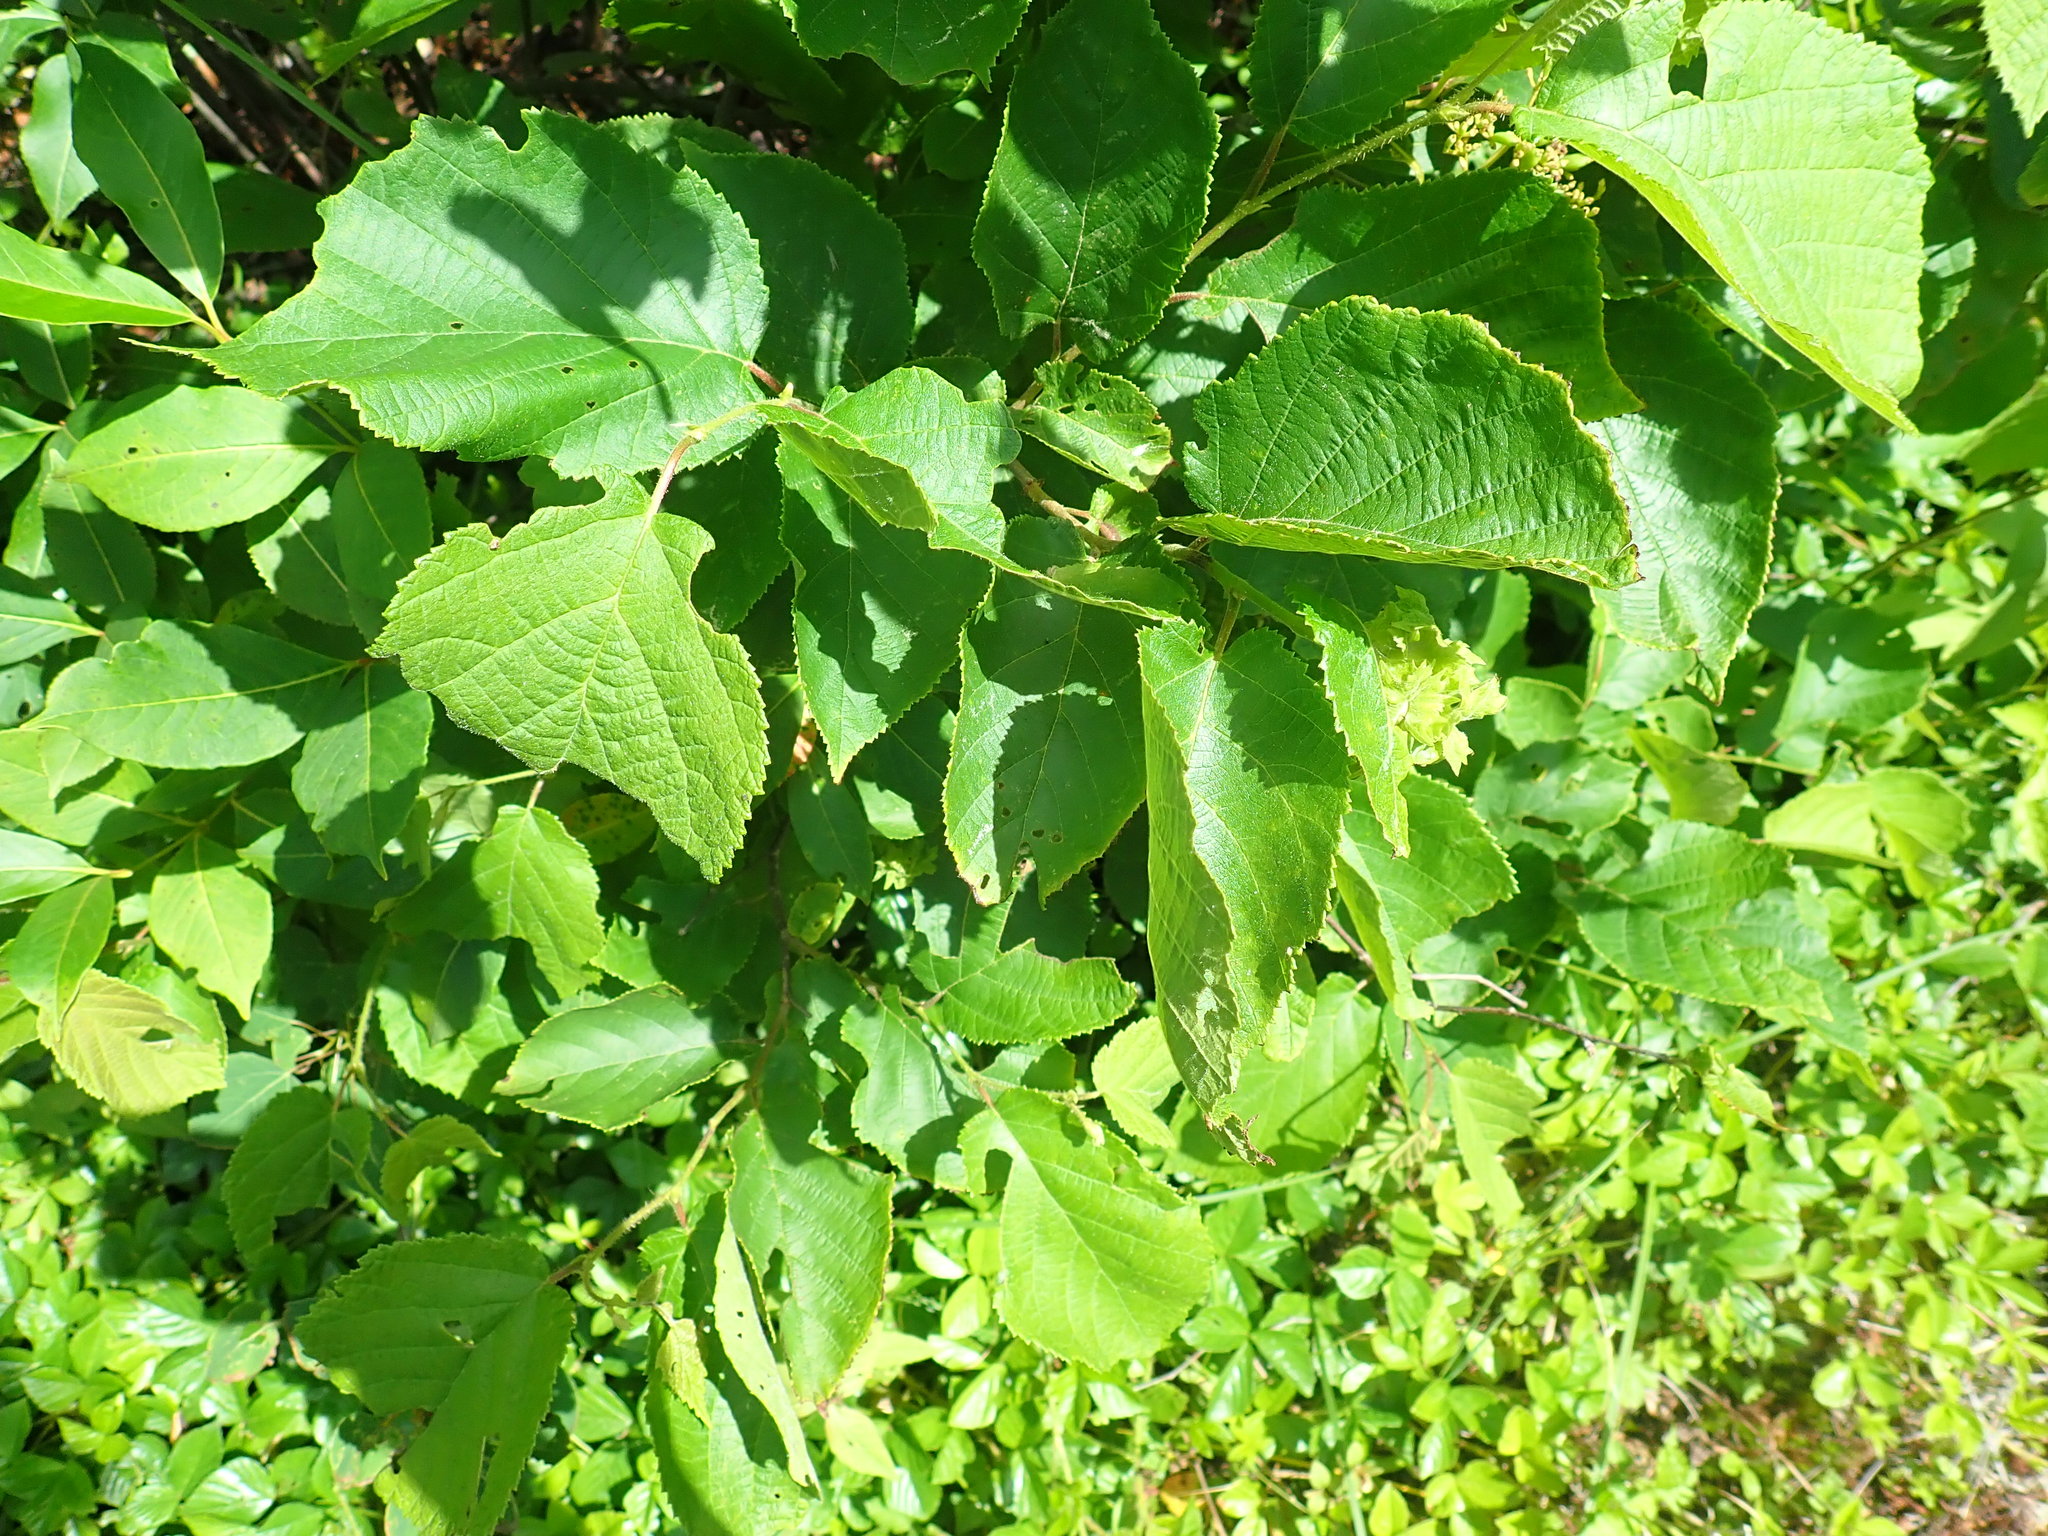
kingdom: Plantae
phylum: Tracheophyta
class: Magnoliopsida
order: Fagales
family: Betulaceae
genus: Corylus
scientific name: Corylus americana
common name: American hazel
